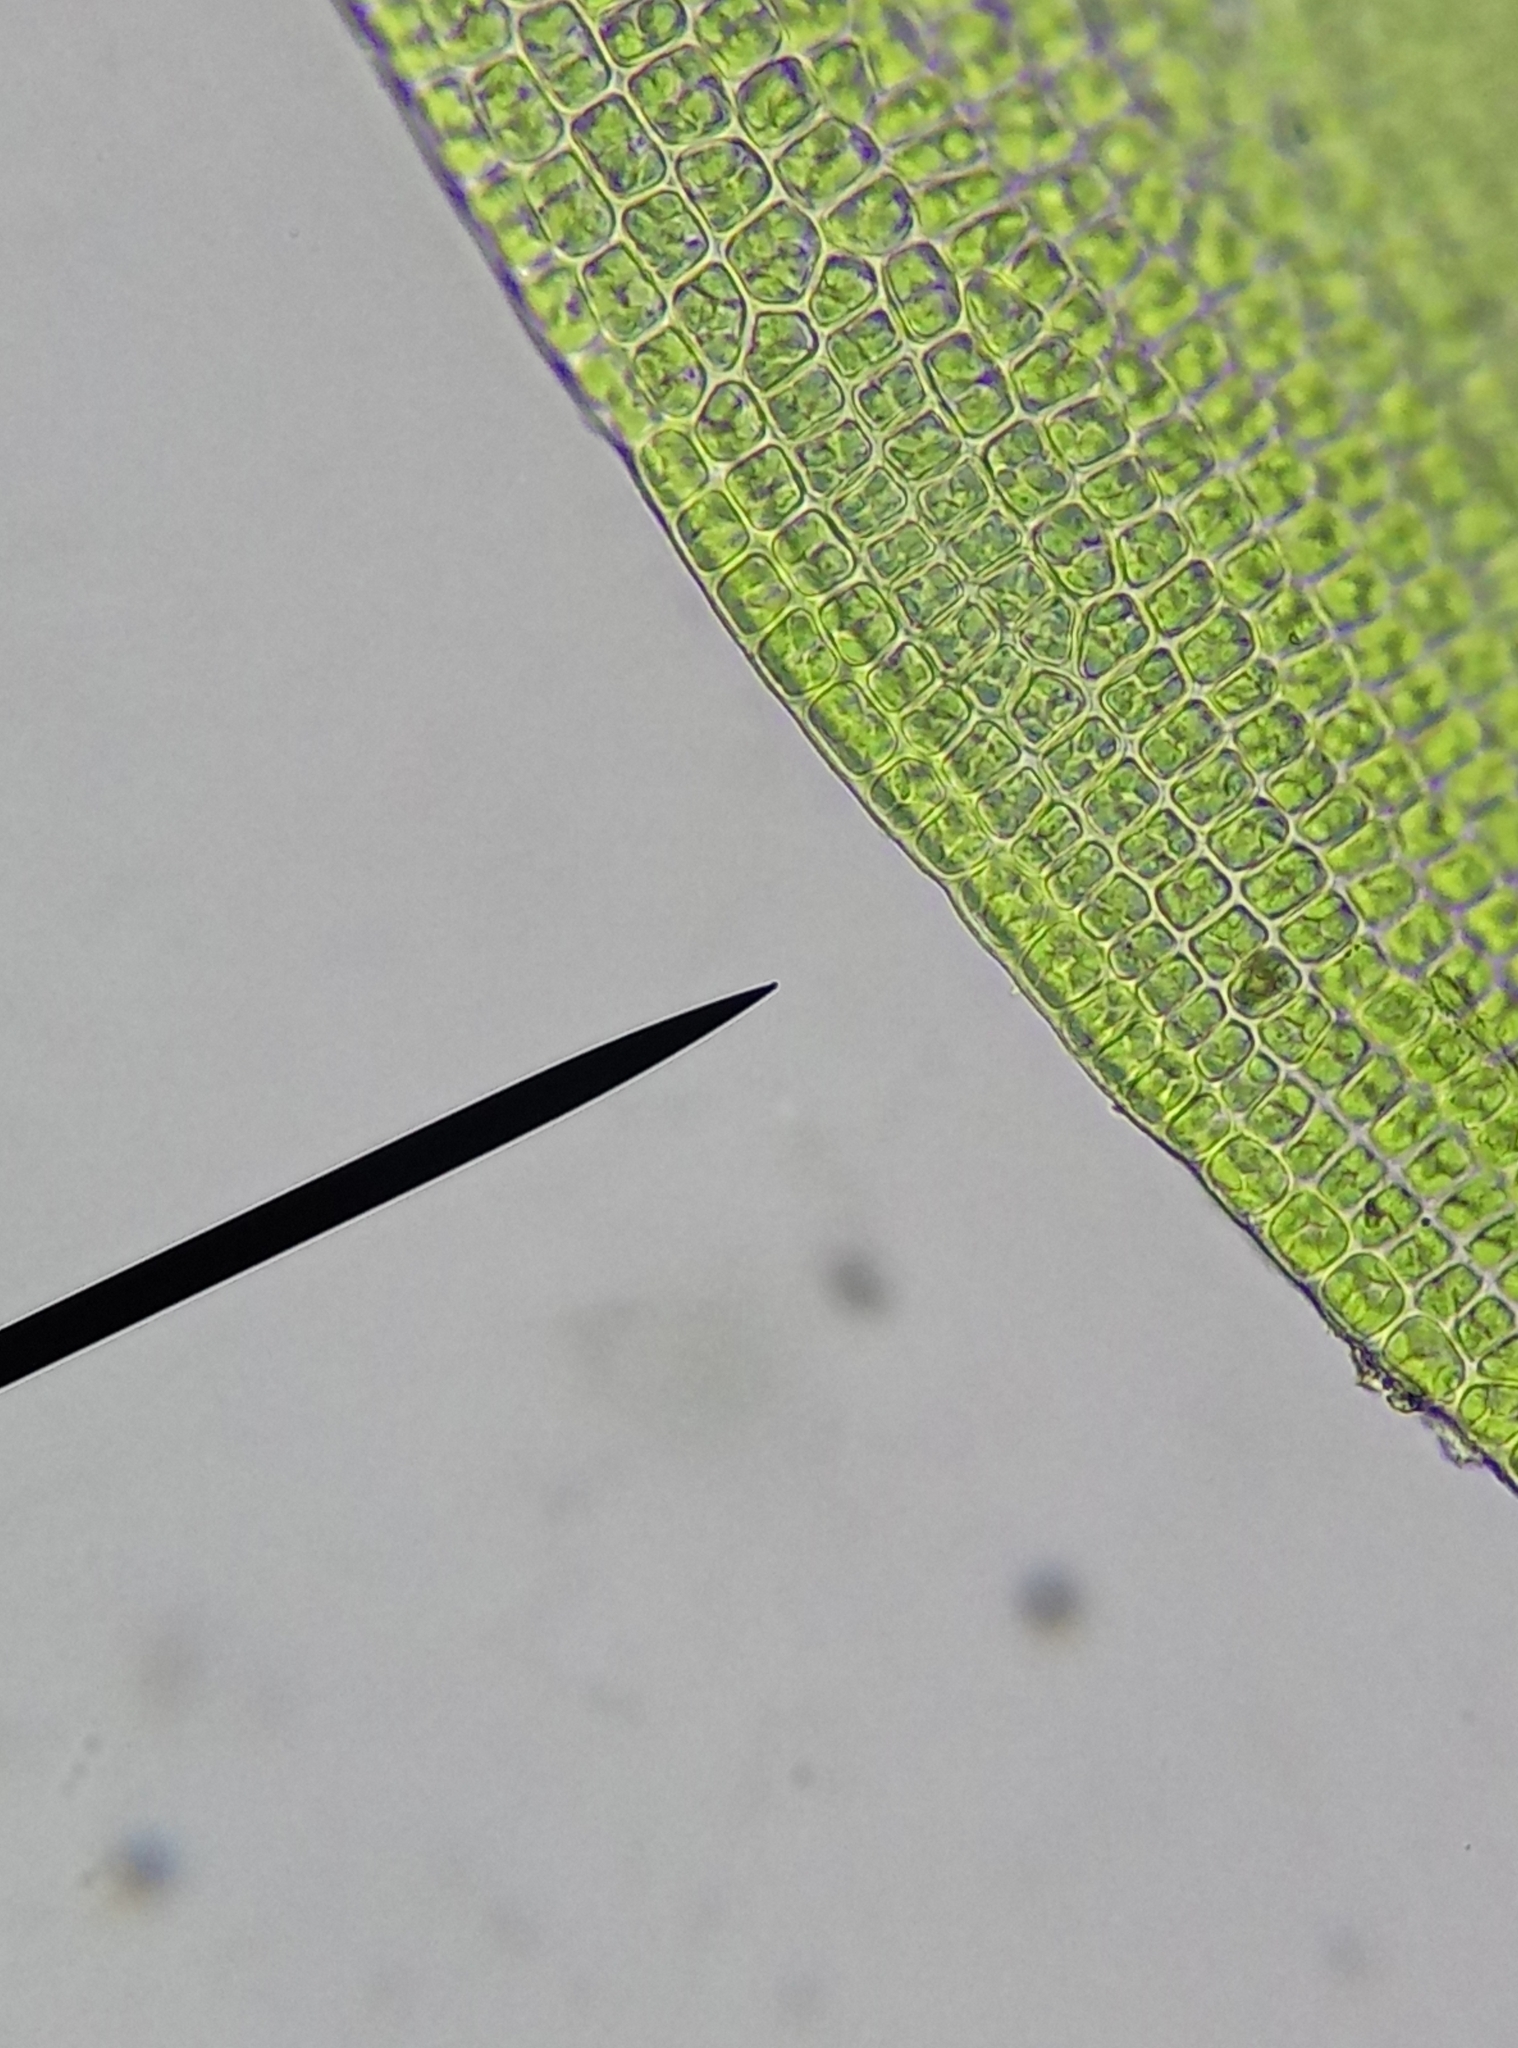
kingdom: Plantae
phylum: Bryophyta
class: Bryopsida
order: Grimmiales
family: Grimmiaceae
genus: Grimmia
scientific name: Grimmia pulvinata
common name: Grey-cushioned grimmia
